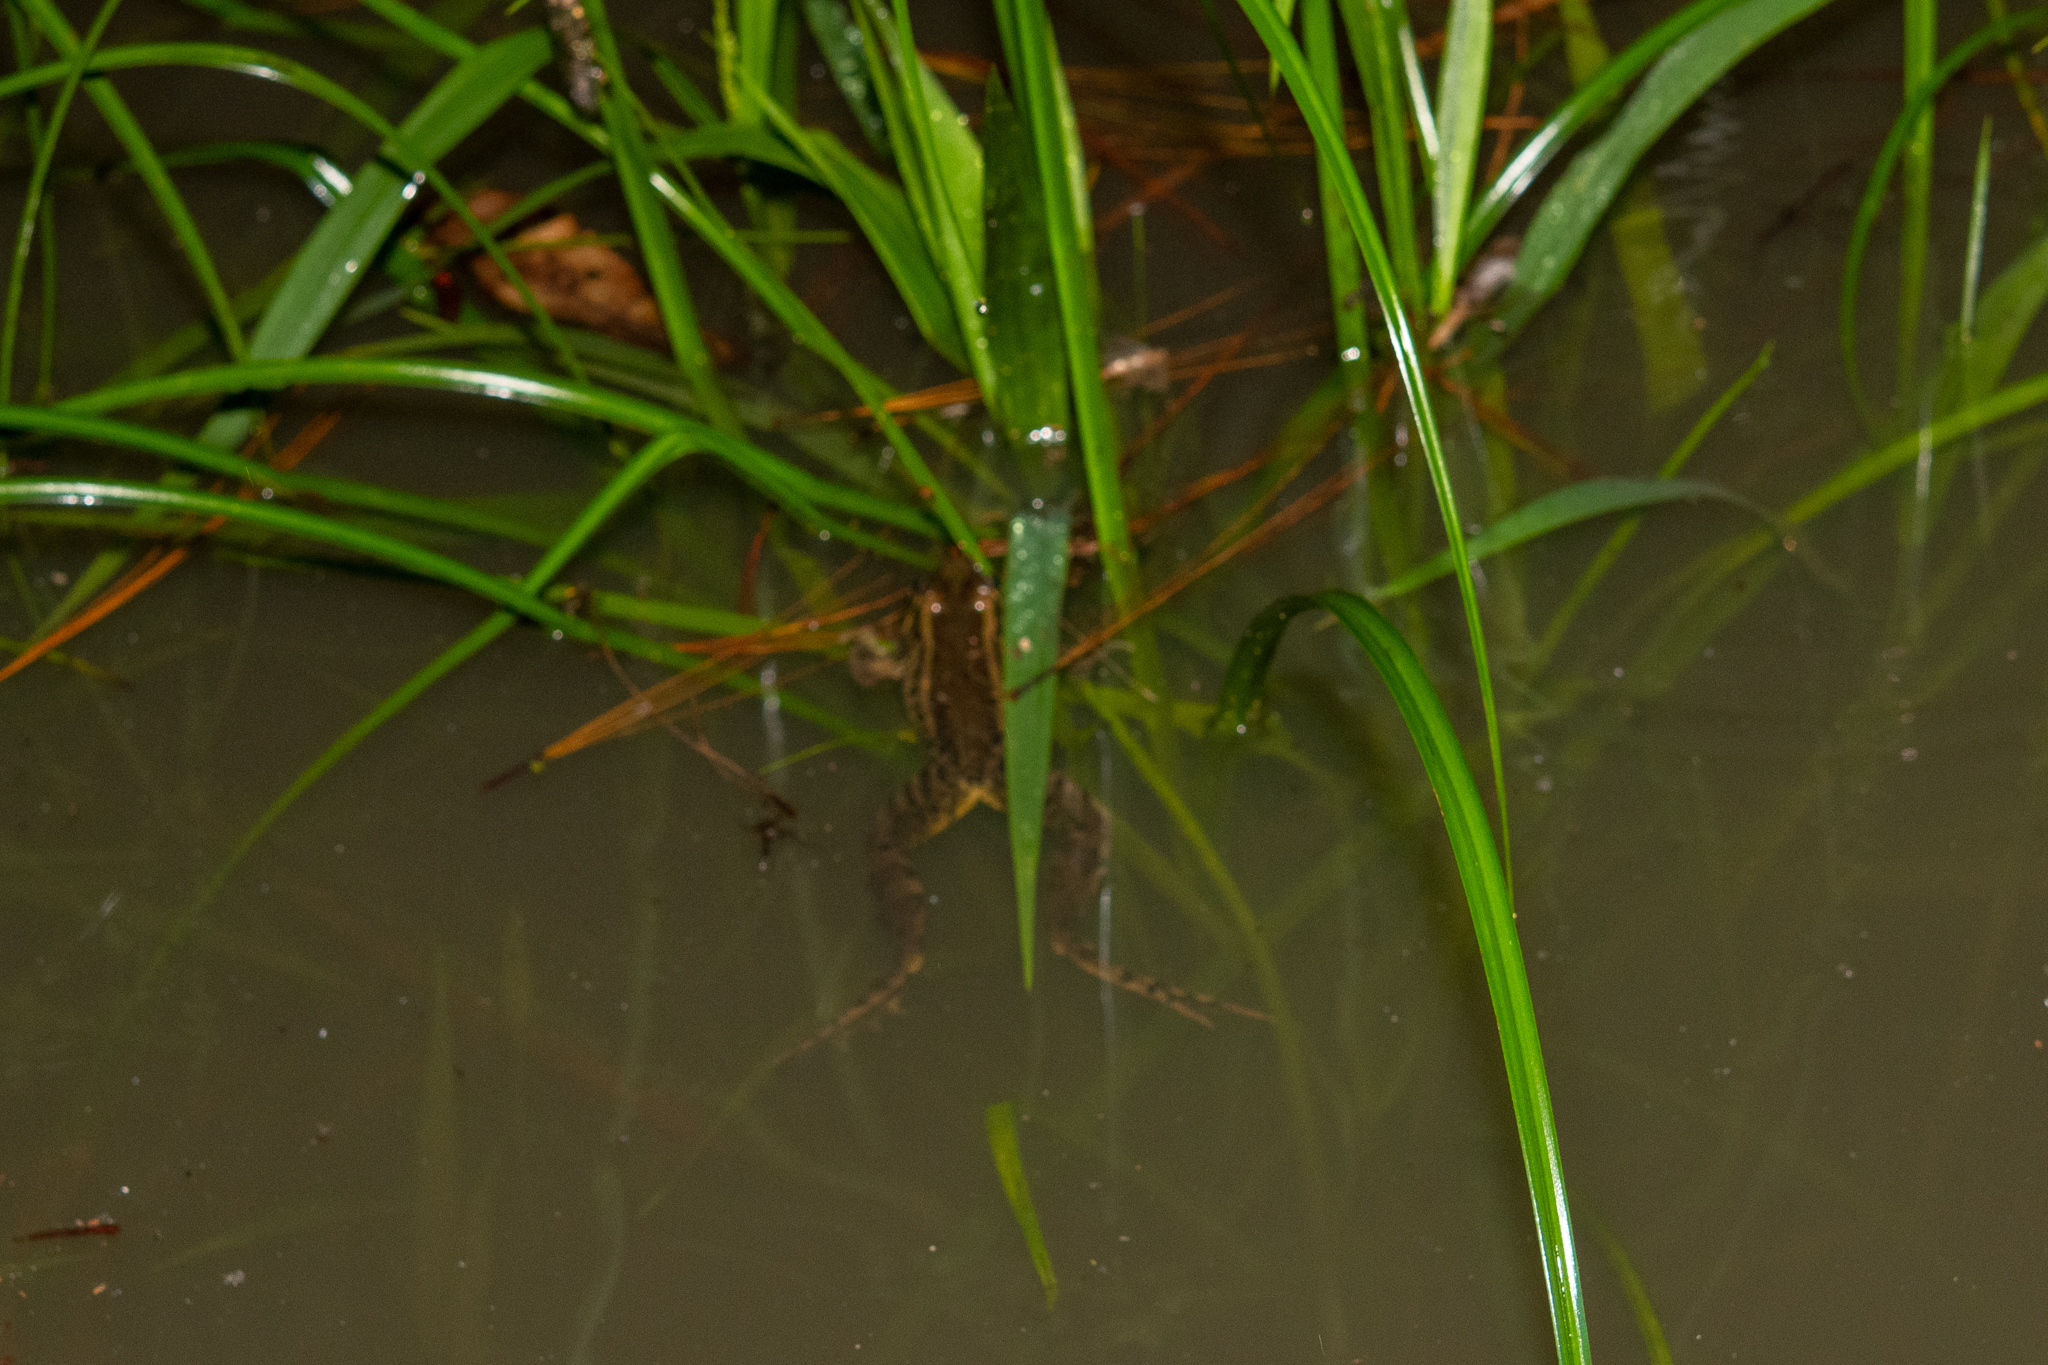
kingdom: Animalia
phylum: Chordata
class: Amphibia
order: Anura
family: Ranidae
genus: Lithobates
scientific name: Lithobates lenca
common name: Lenca leopard frog
